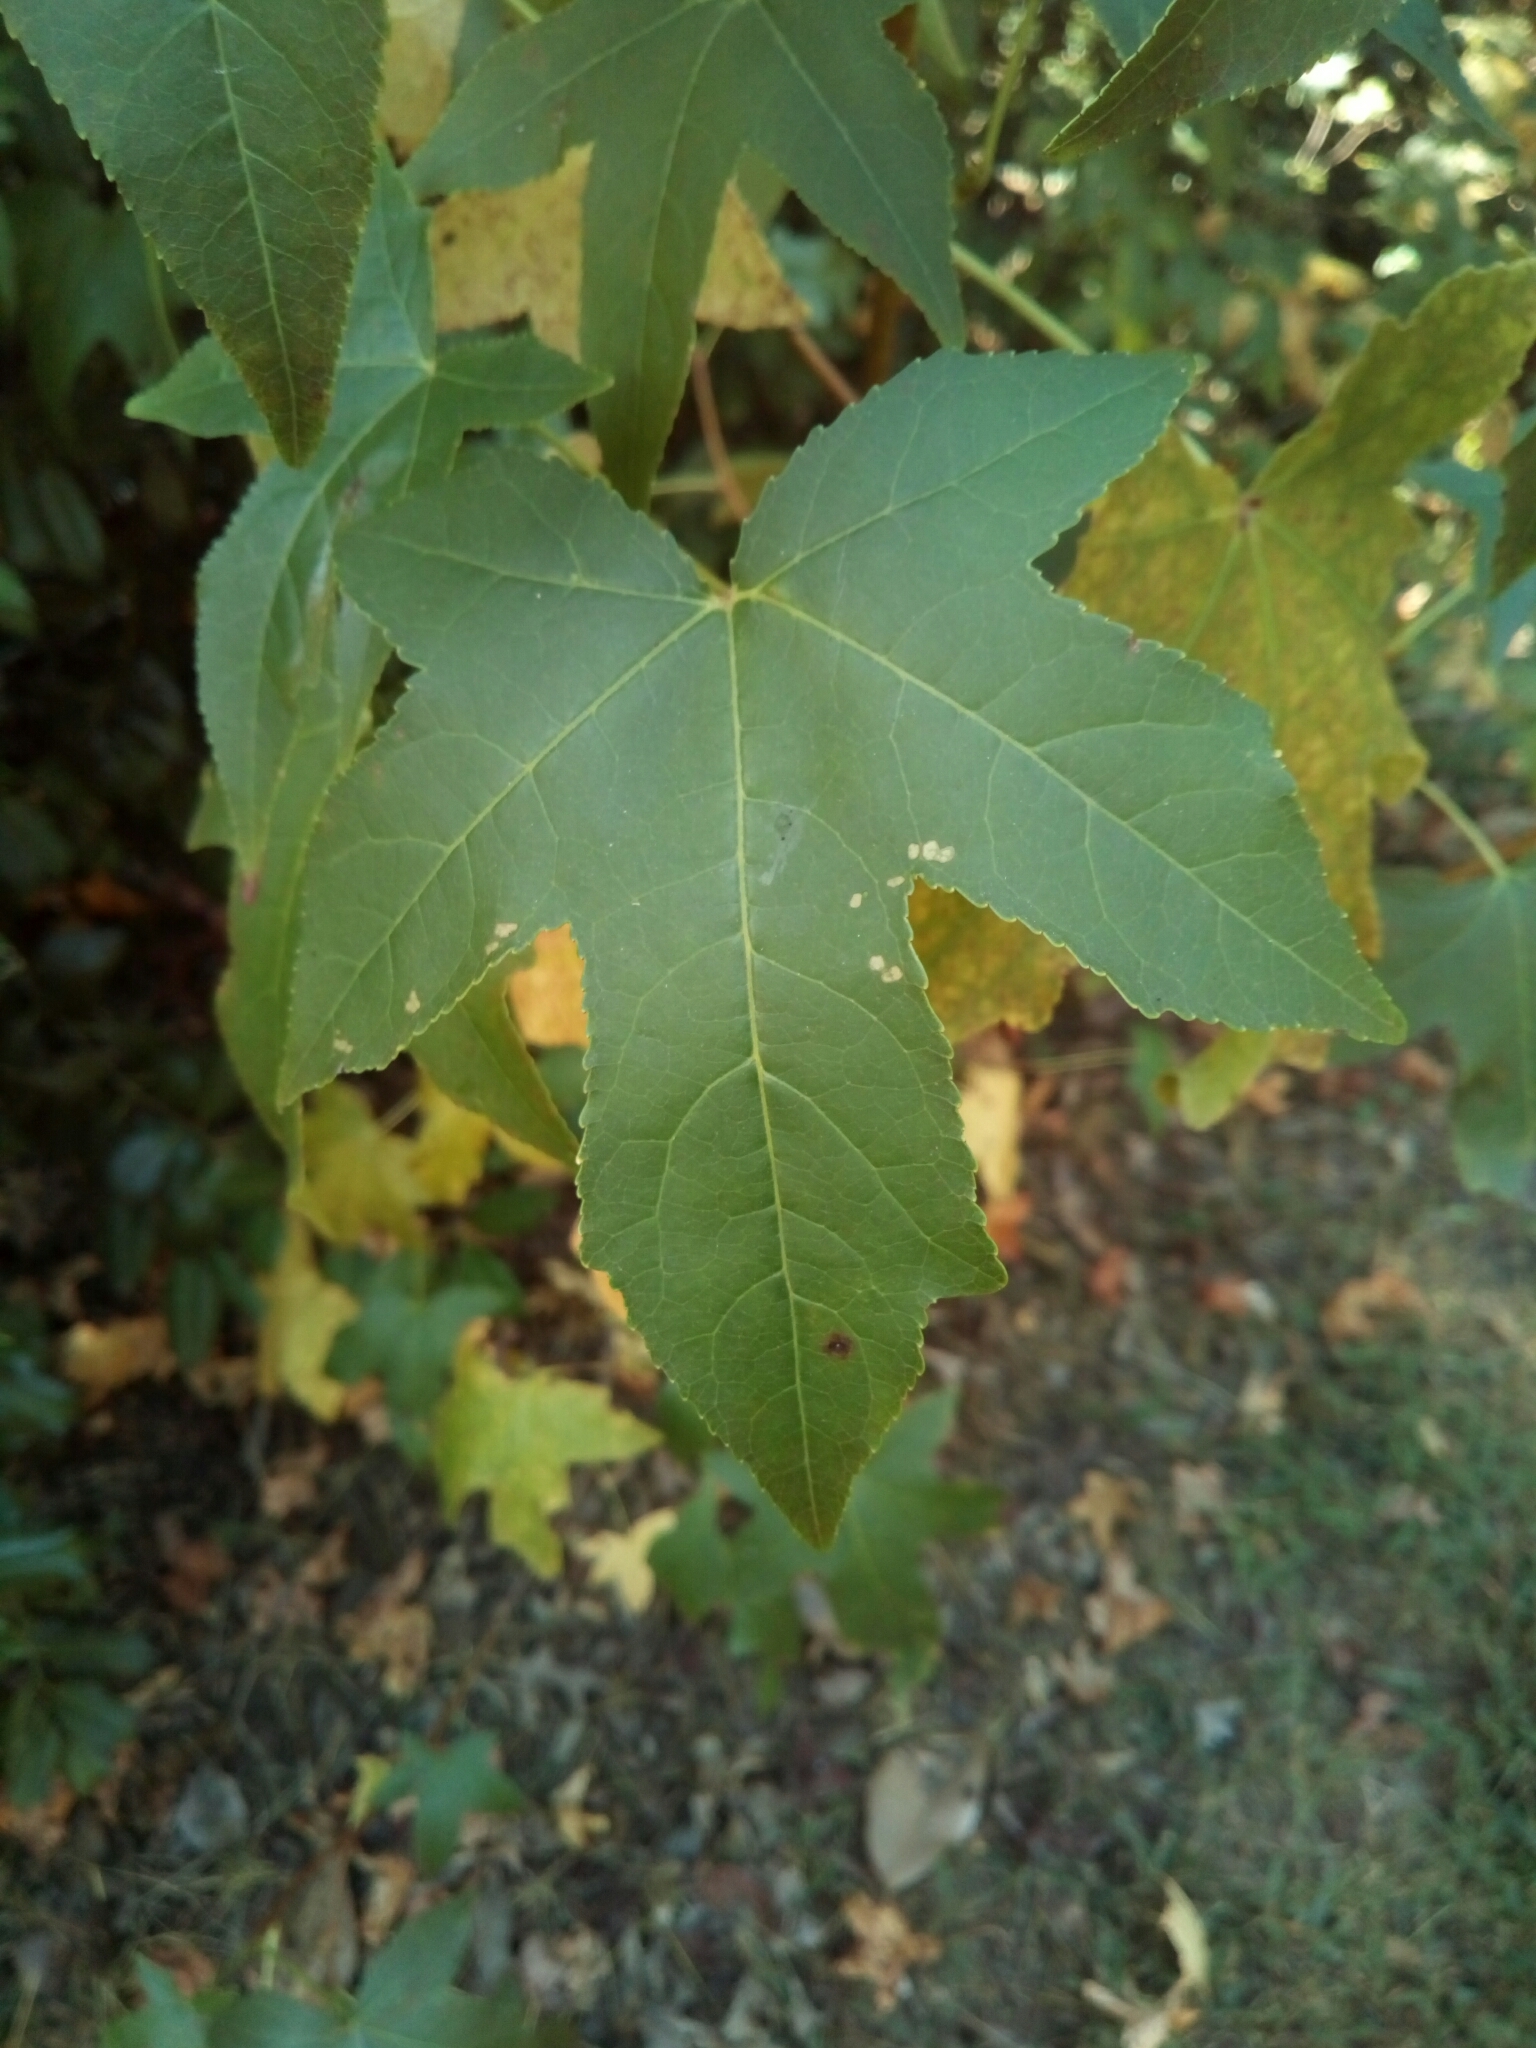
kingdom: Plantae
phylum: Tracheophyta
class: Magnoliopsida
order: Saxifragales
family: Altingiaceae
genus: Liquidambar
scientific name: Liquidambar styraciflua
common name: Sweet gum
